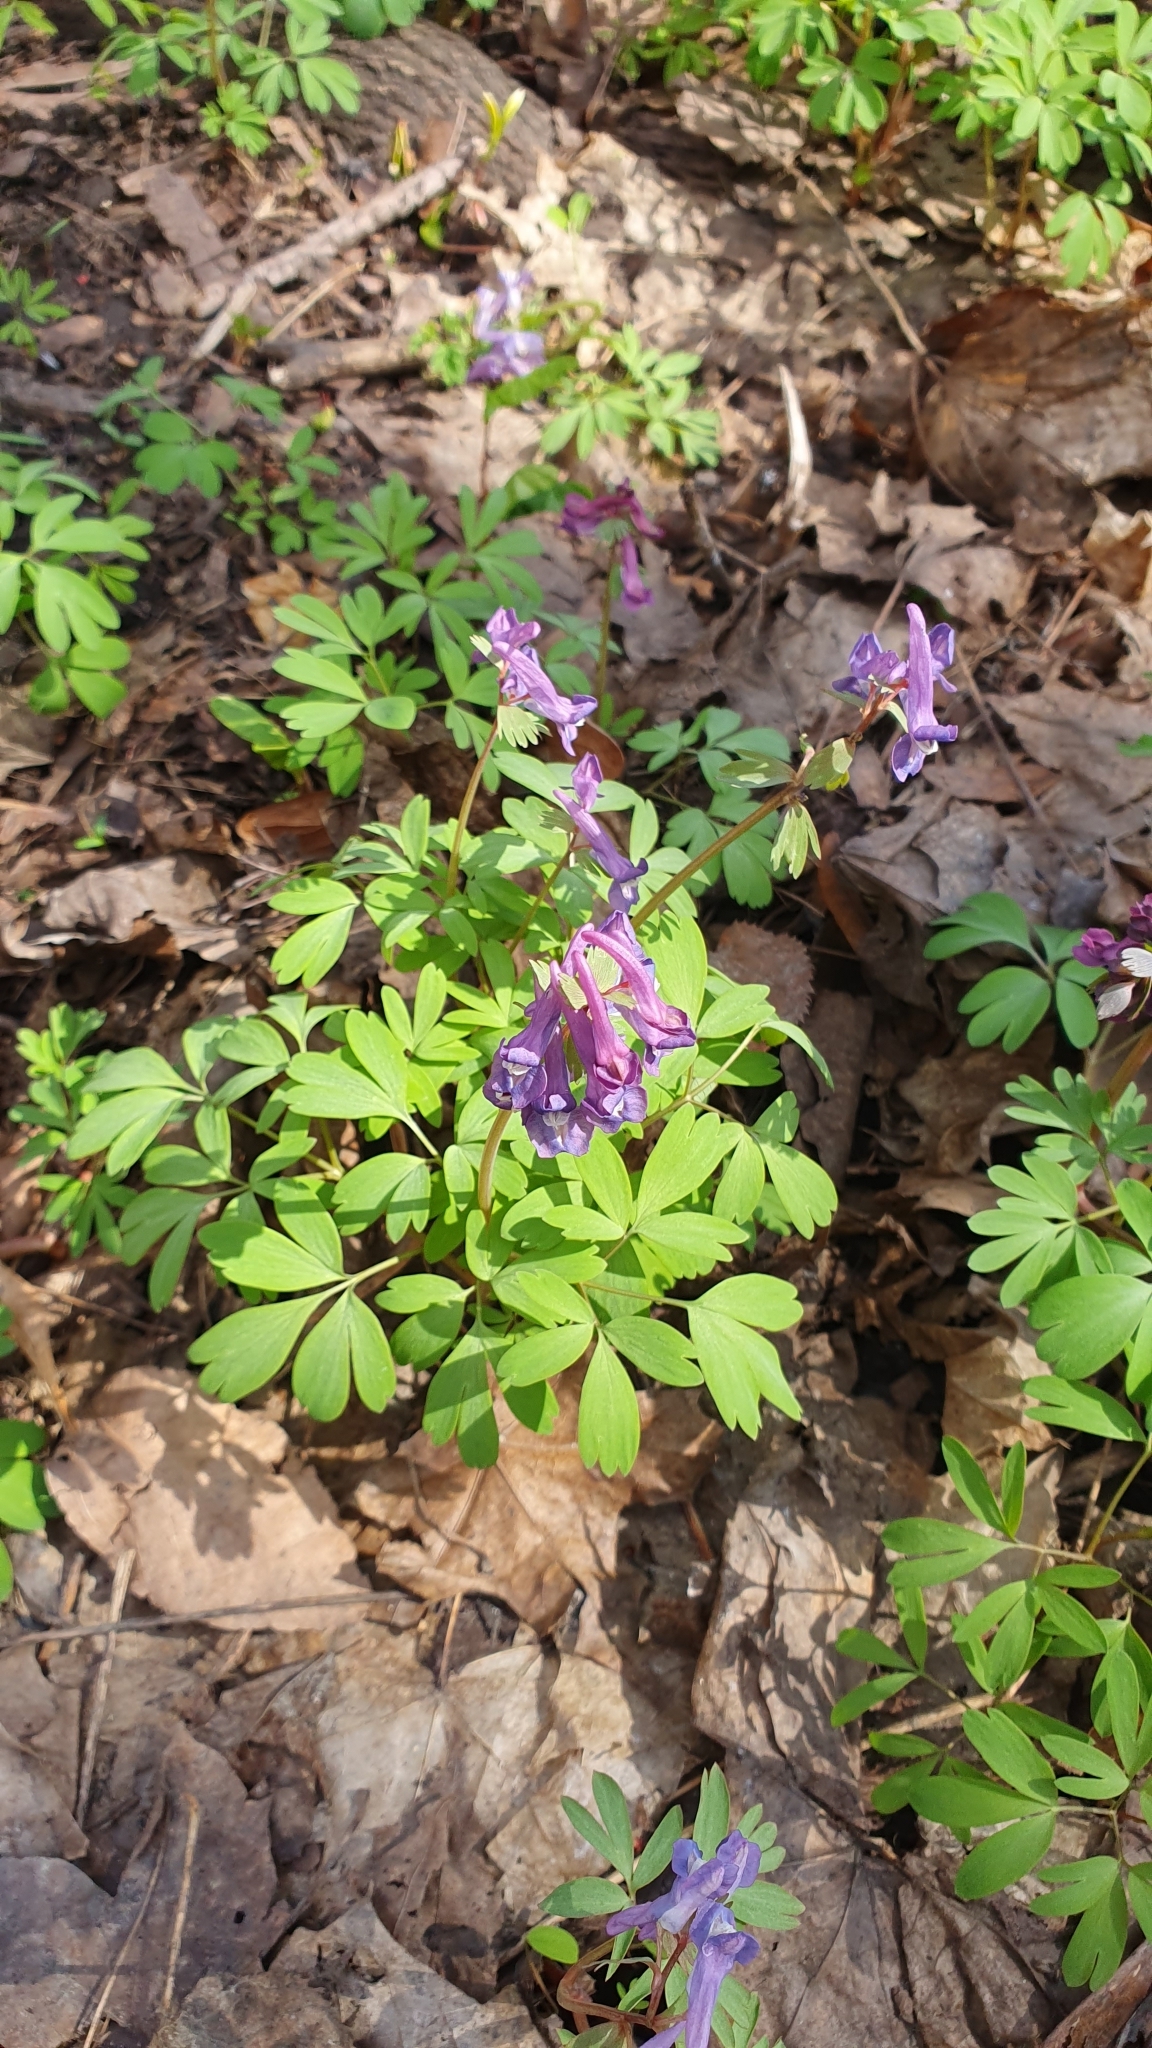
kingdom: Plantae
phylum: Tracheophyta
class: Magnoliopsida
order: Ranunculales
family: Papaveraceae
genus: Corydalis
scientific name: Corydalis solida
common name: Bird-in-a-bush
